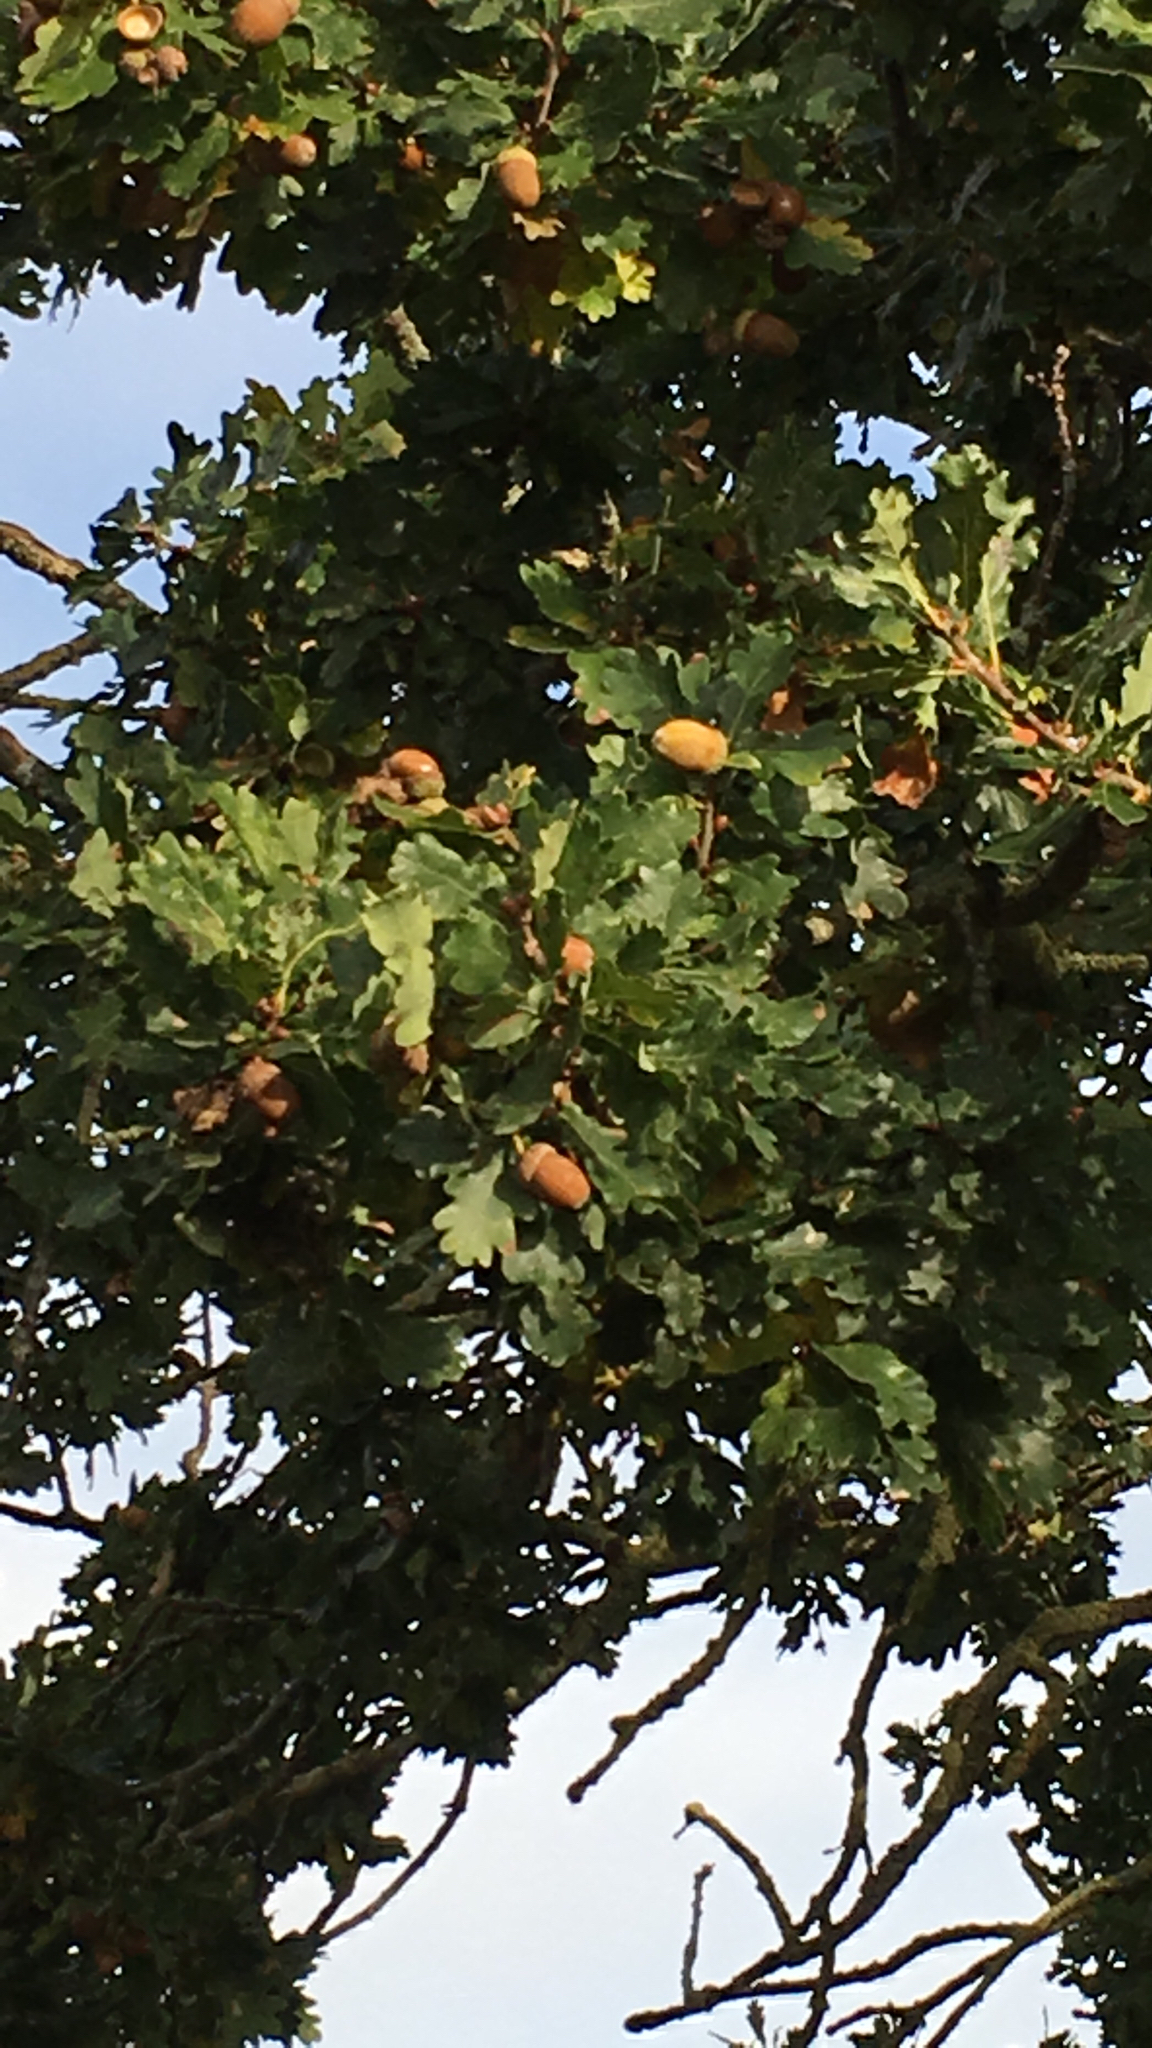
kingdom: Plantae
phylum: Tracheophyta
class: Magnoliopsida
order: Fagales
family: Fagaceae
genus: Quercus
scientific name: Quercus robur
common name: Pedunculate oak
